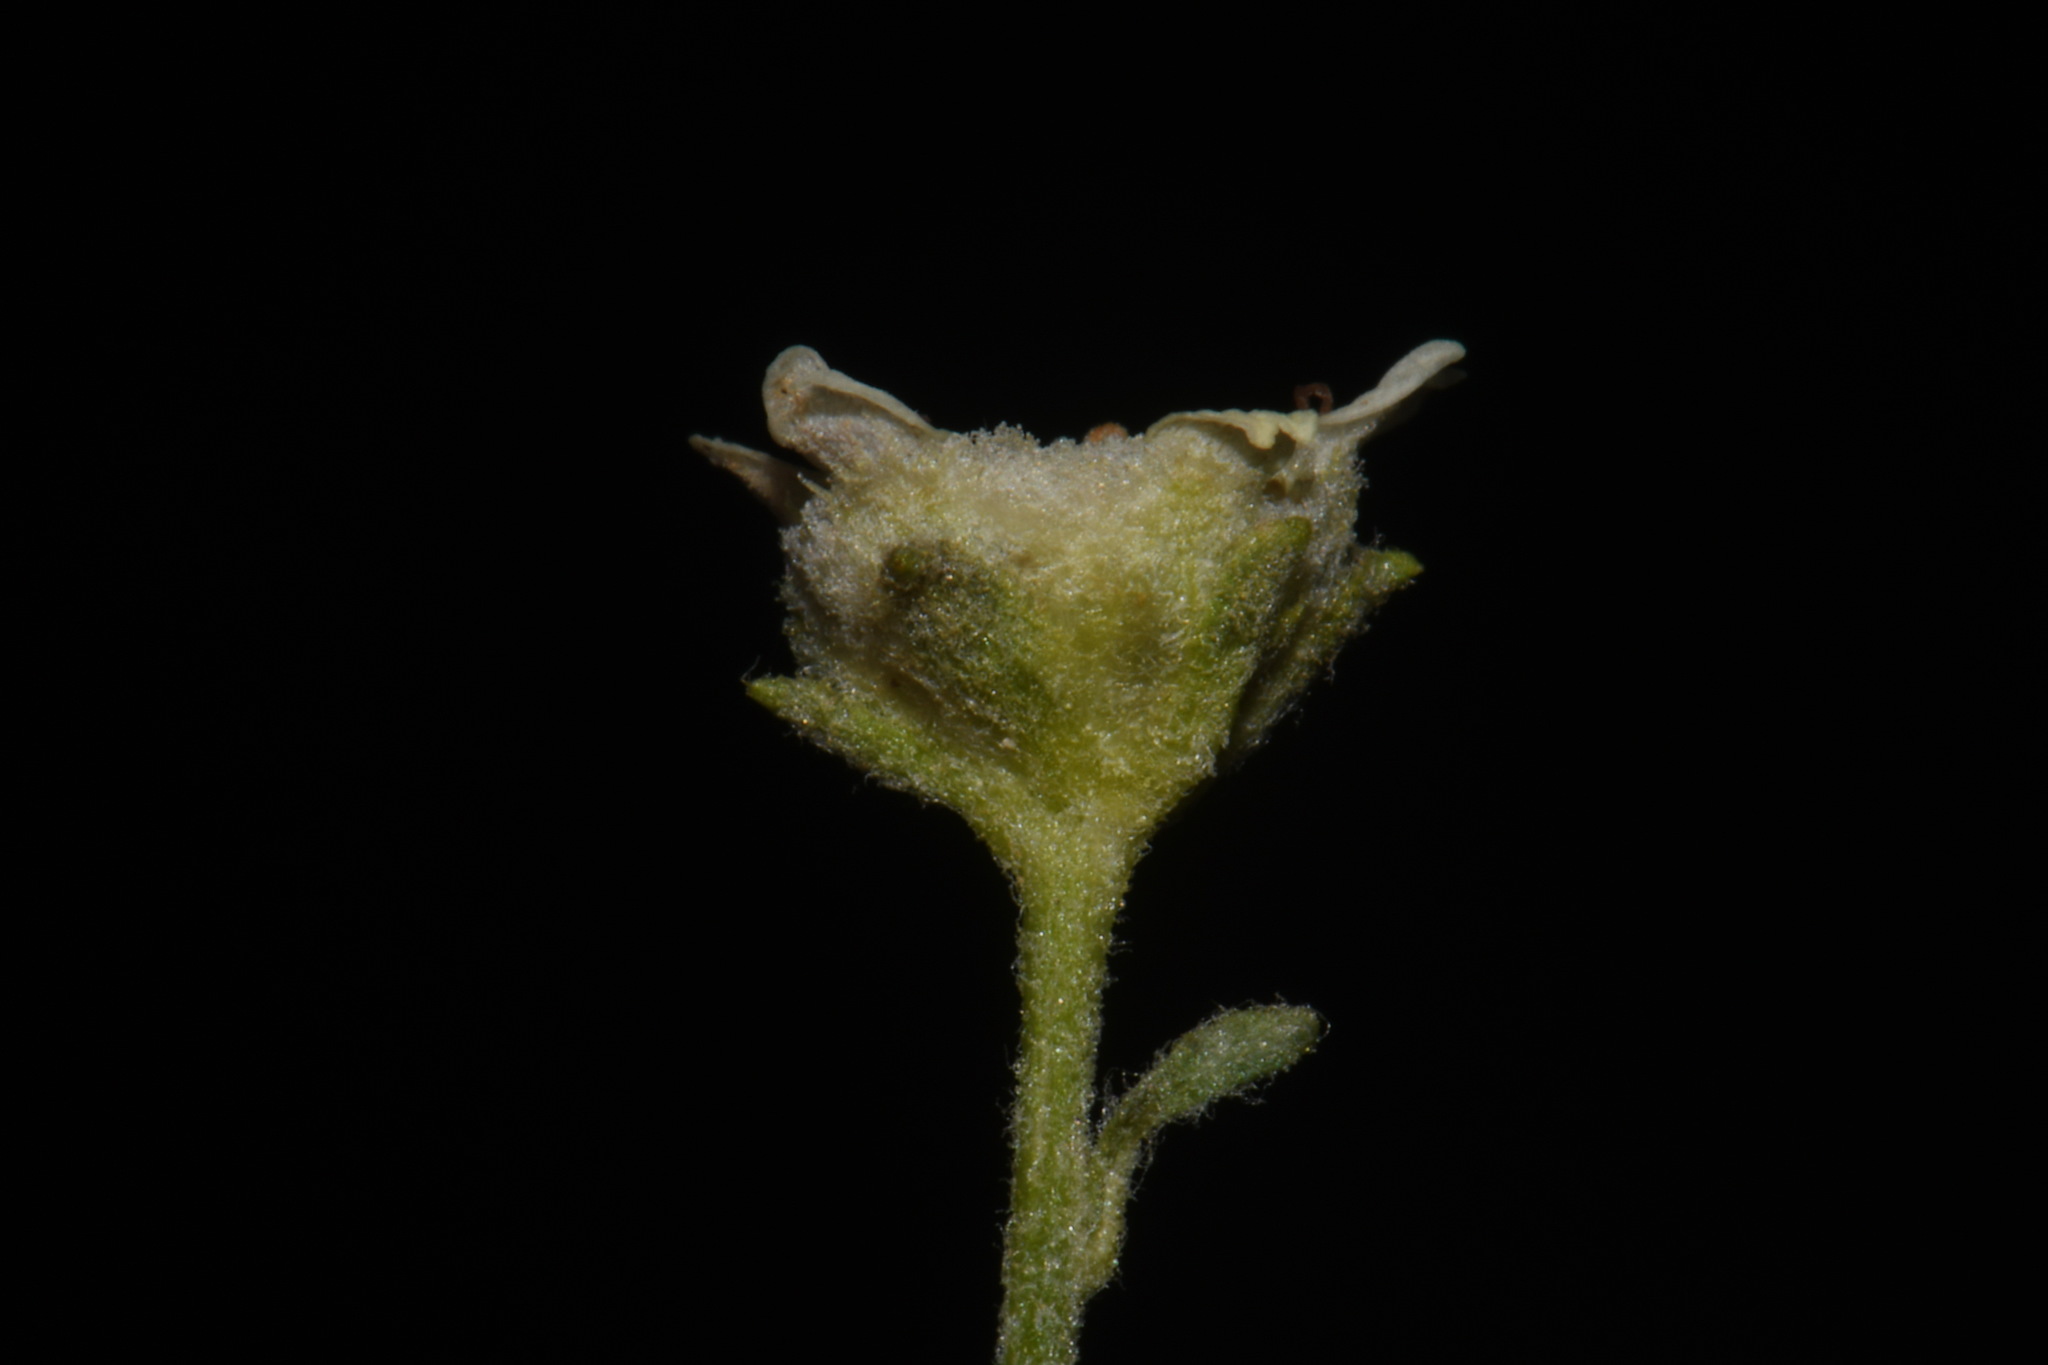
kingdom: Plantae
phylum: Tracheophyta
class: Magnoliopsida
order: Asterales
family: Asteraceae
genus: Parthenium
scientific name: Parthenium incanum
